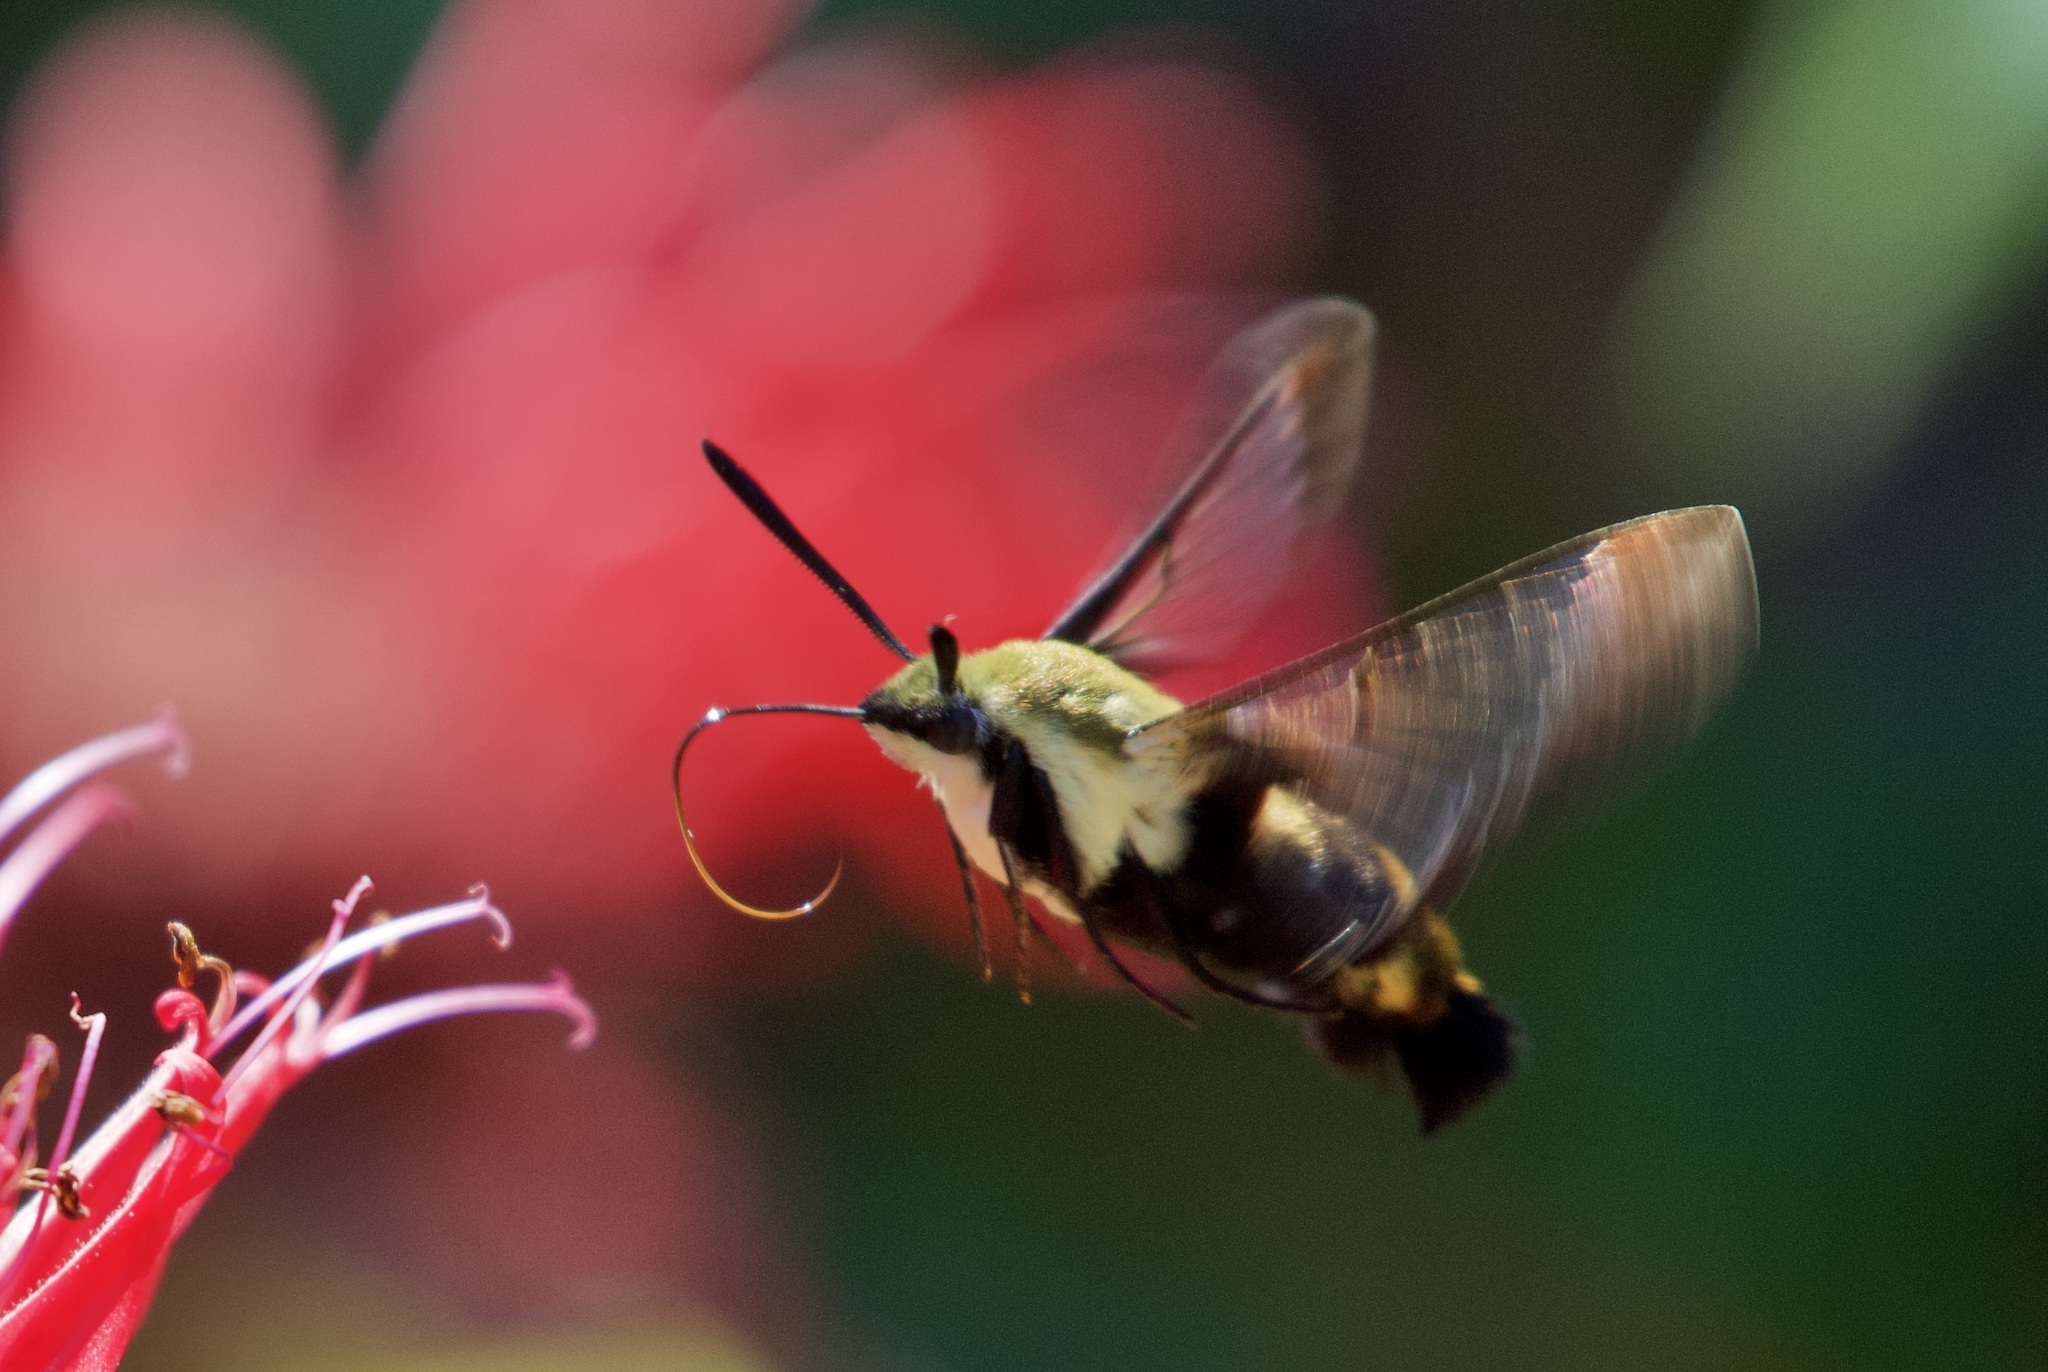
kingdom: Animalia
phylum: Arthropoda
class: Insecta
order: Lepidoptera
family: Sphingidae
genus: Hemaris
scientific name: Hemaris diffinis
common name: Bumblebee moth
